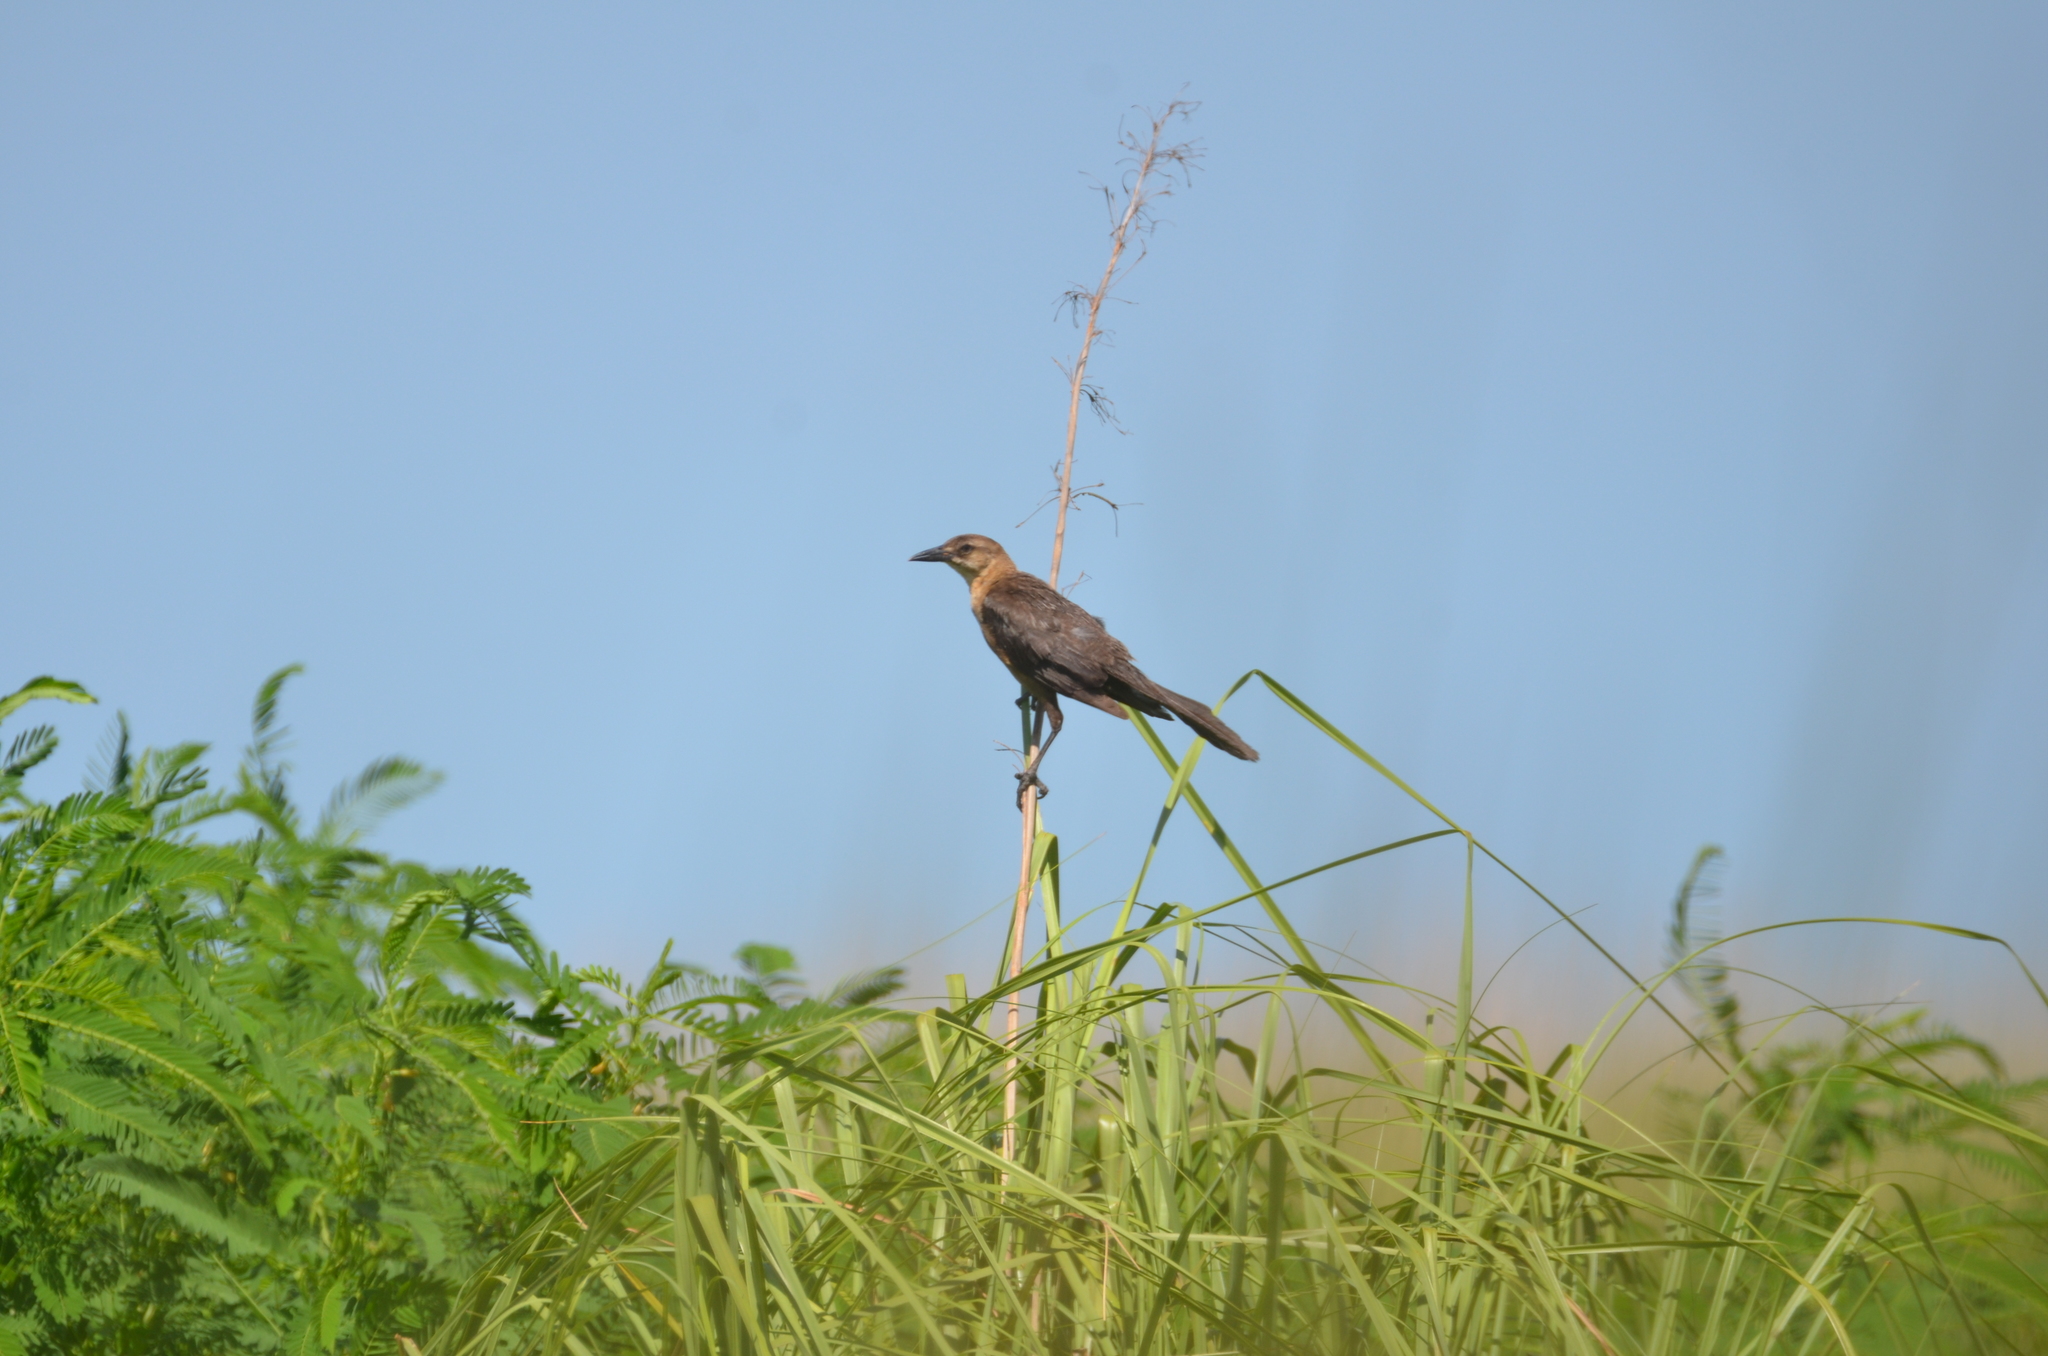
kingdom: Animalia
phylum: Chordata
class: Aves
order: Passeriformes
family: Icteridae
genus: Quiscalus
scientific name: Quiscalus major
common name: Boat-tailed grackle
